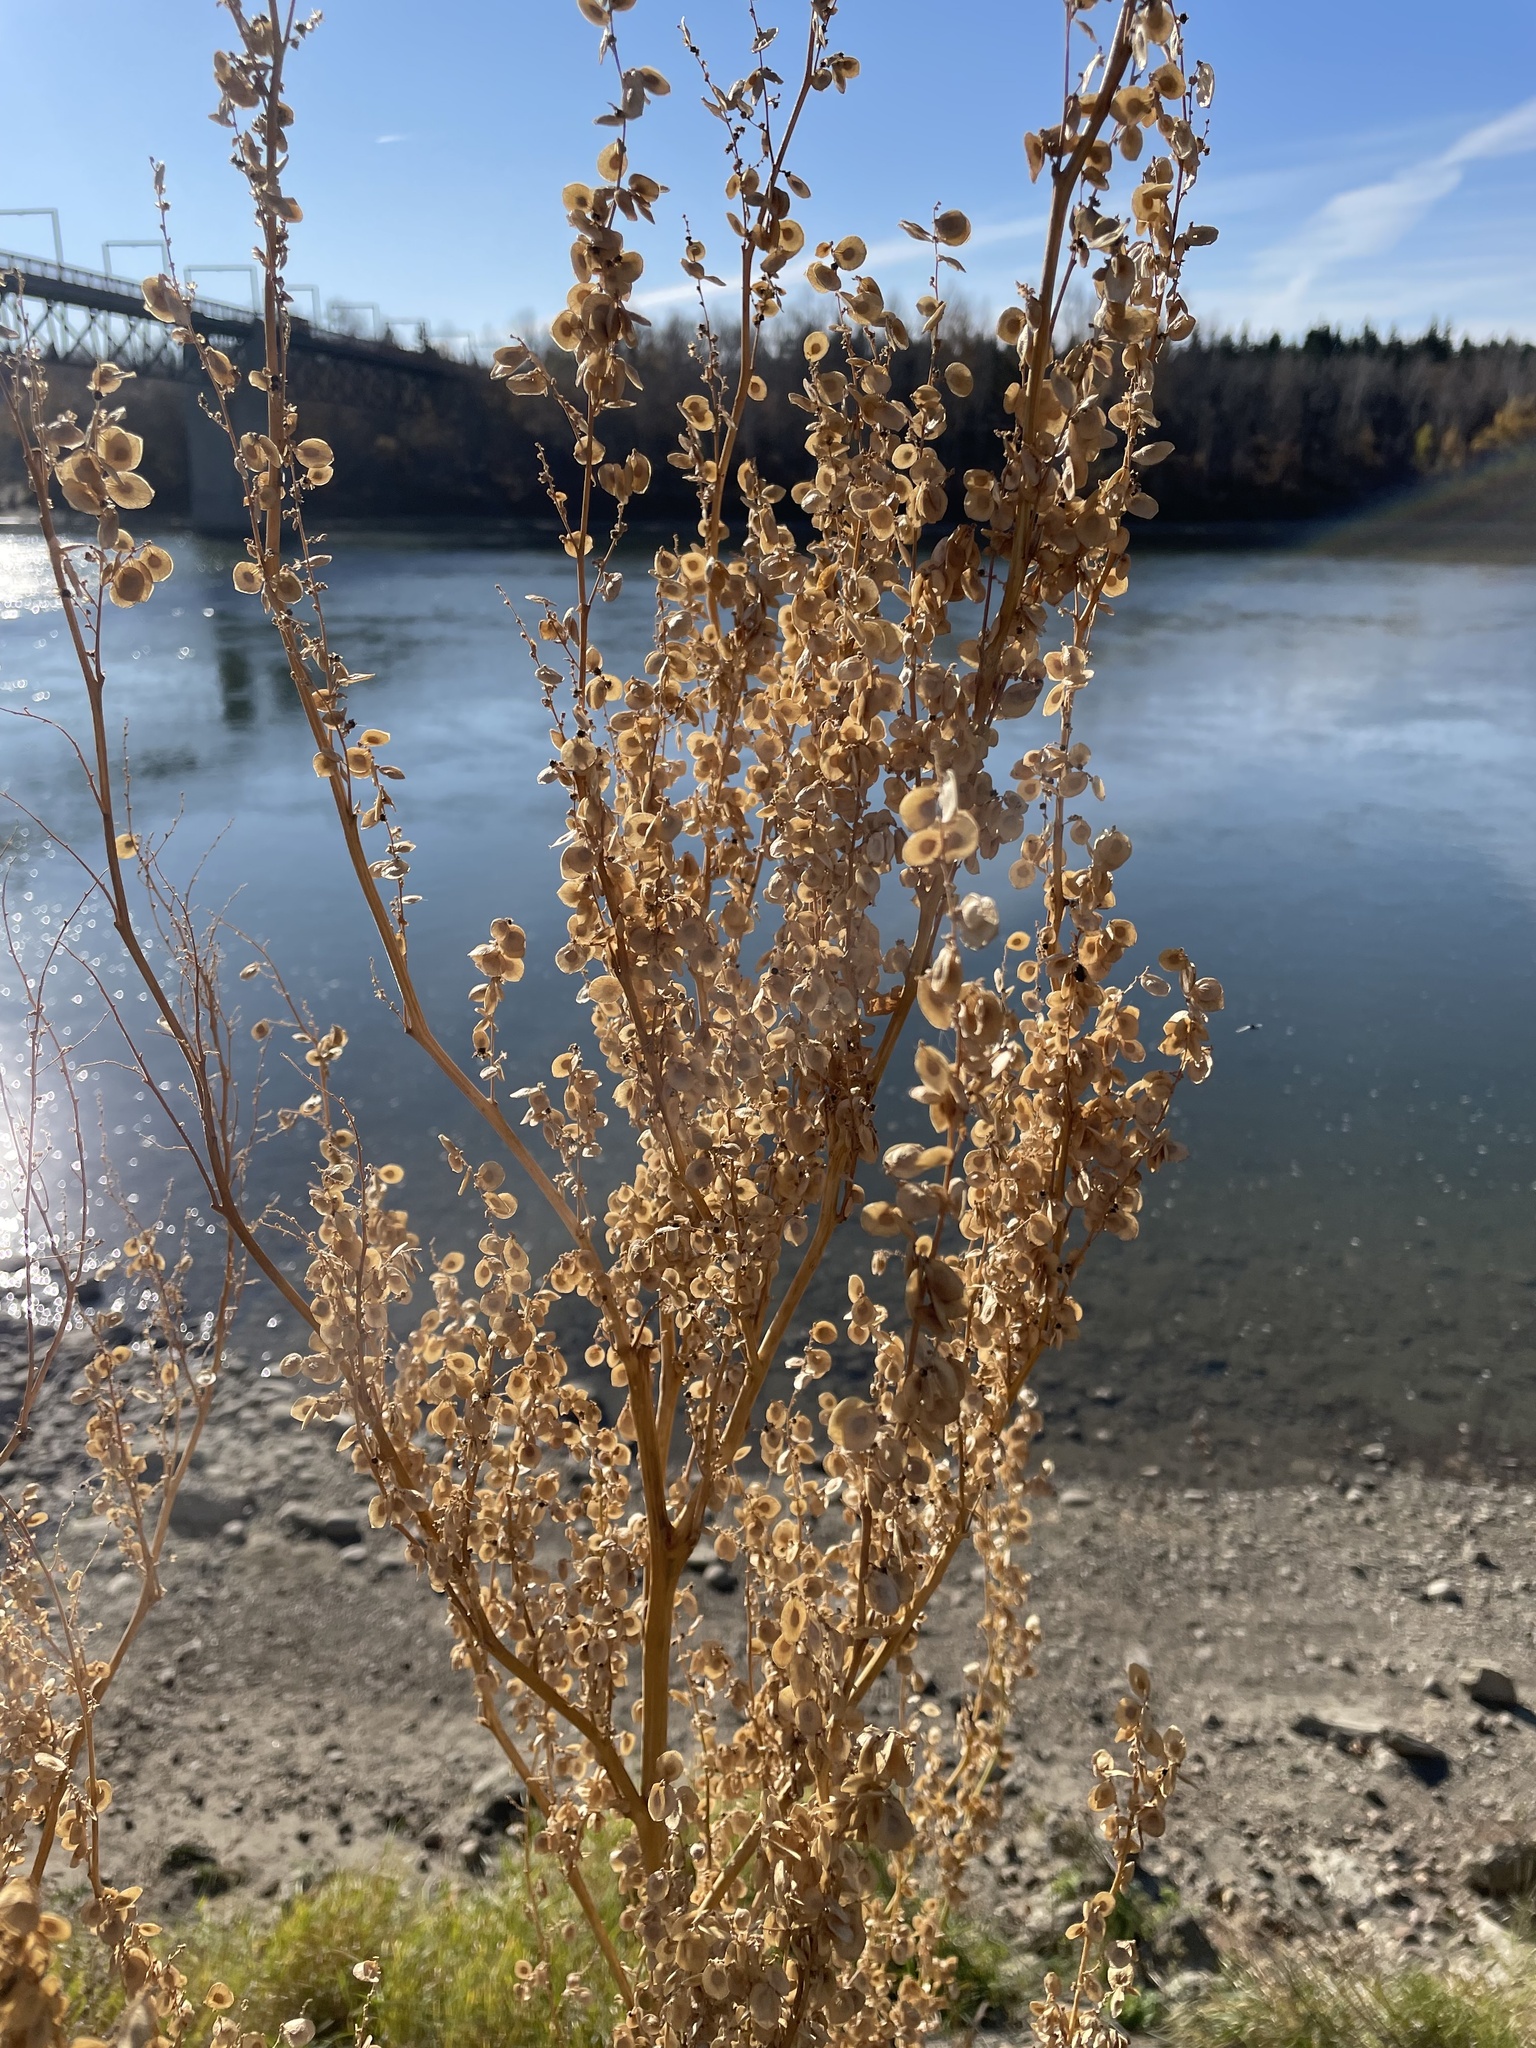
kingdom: Plantae
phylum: Tracheophyta
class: Magnoliopsida
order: Caryophyllales
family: Amaranthaceae
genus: Atriplex
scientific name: Atriplex hortensis
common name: Garden orache
